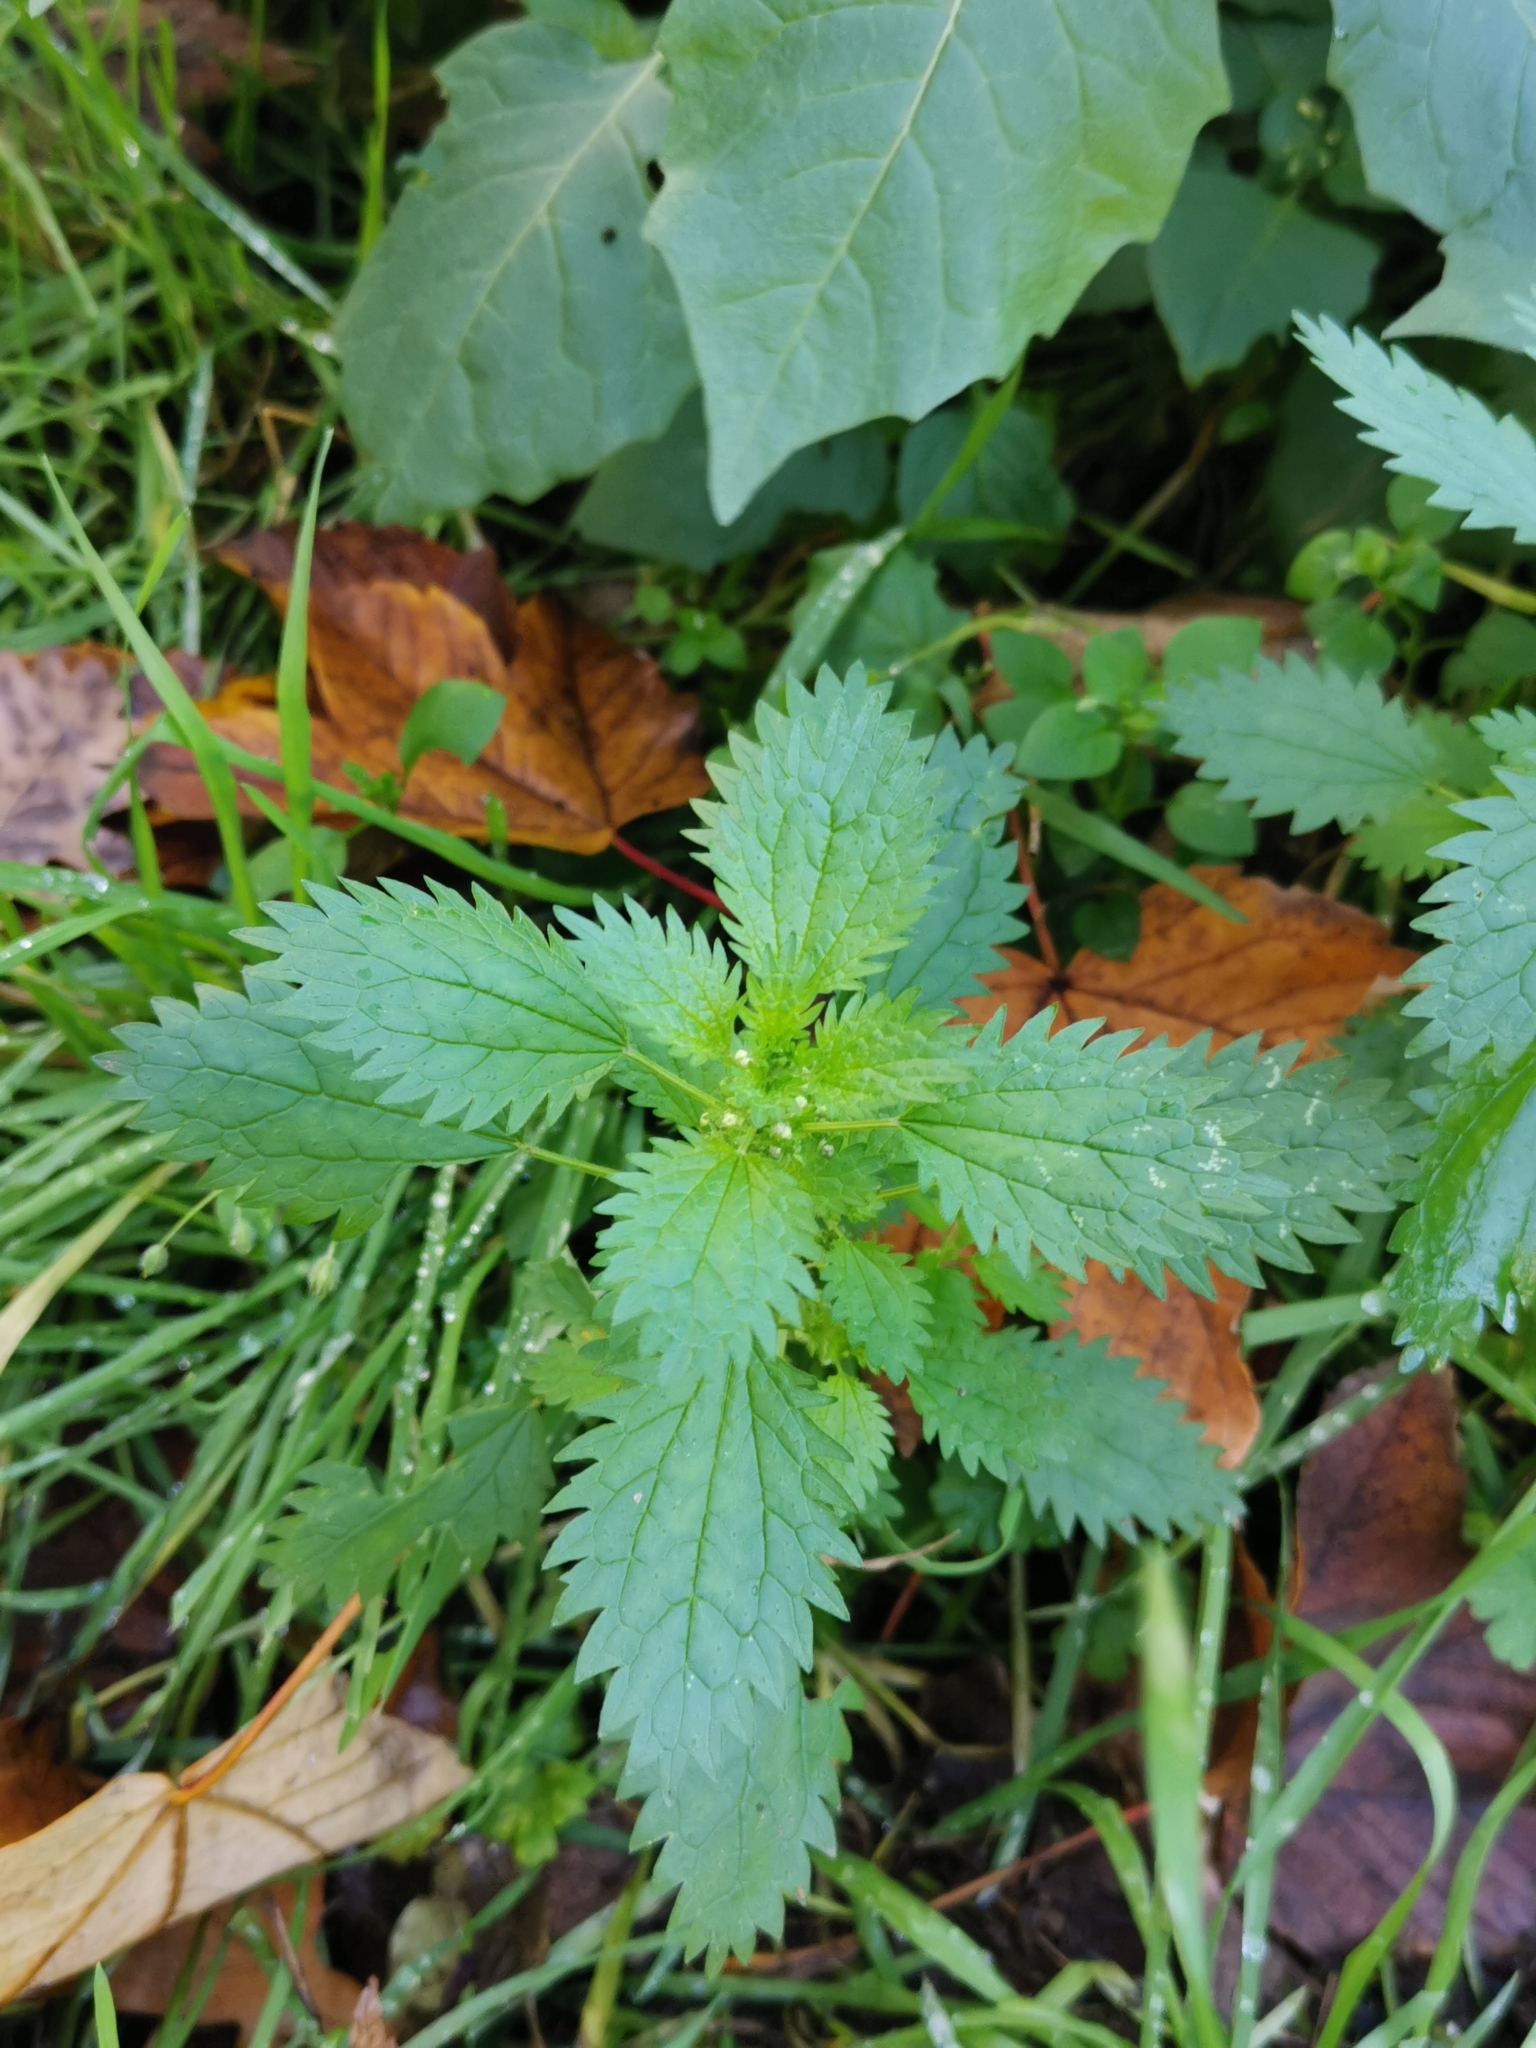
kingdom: Plantae
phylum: Tracheophyta
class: Magnoliopsida
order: Rosales
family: Urticaceae
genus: Urtica
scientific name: Urtica urens
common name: Dwarf nettle
